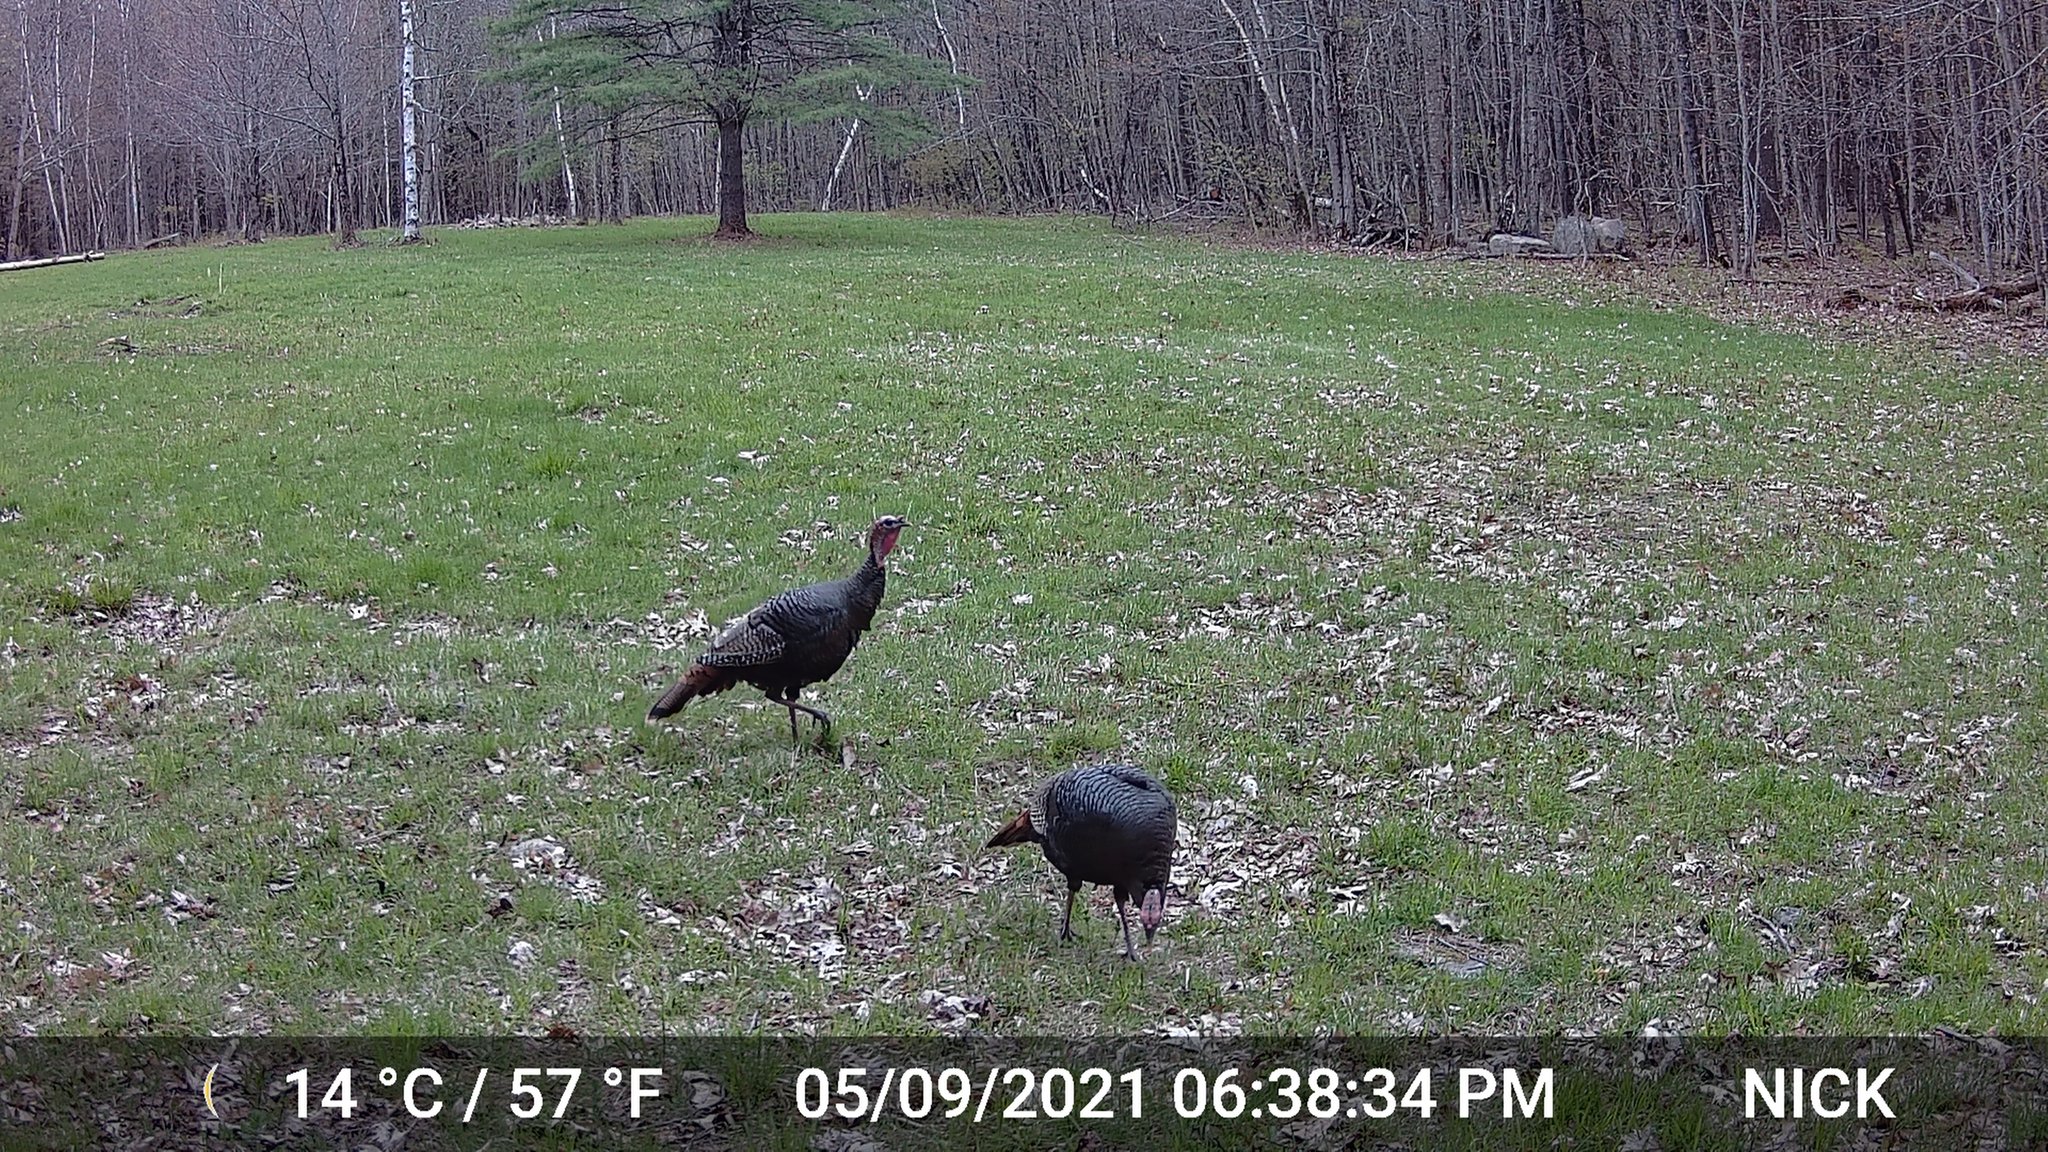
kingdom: Animalia
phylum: Chordata
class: Aves
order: Galliformes
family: Phasianidae
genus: Meleagris
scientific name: Meleagris gallopavo
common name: Wild turkey
